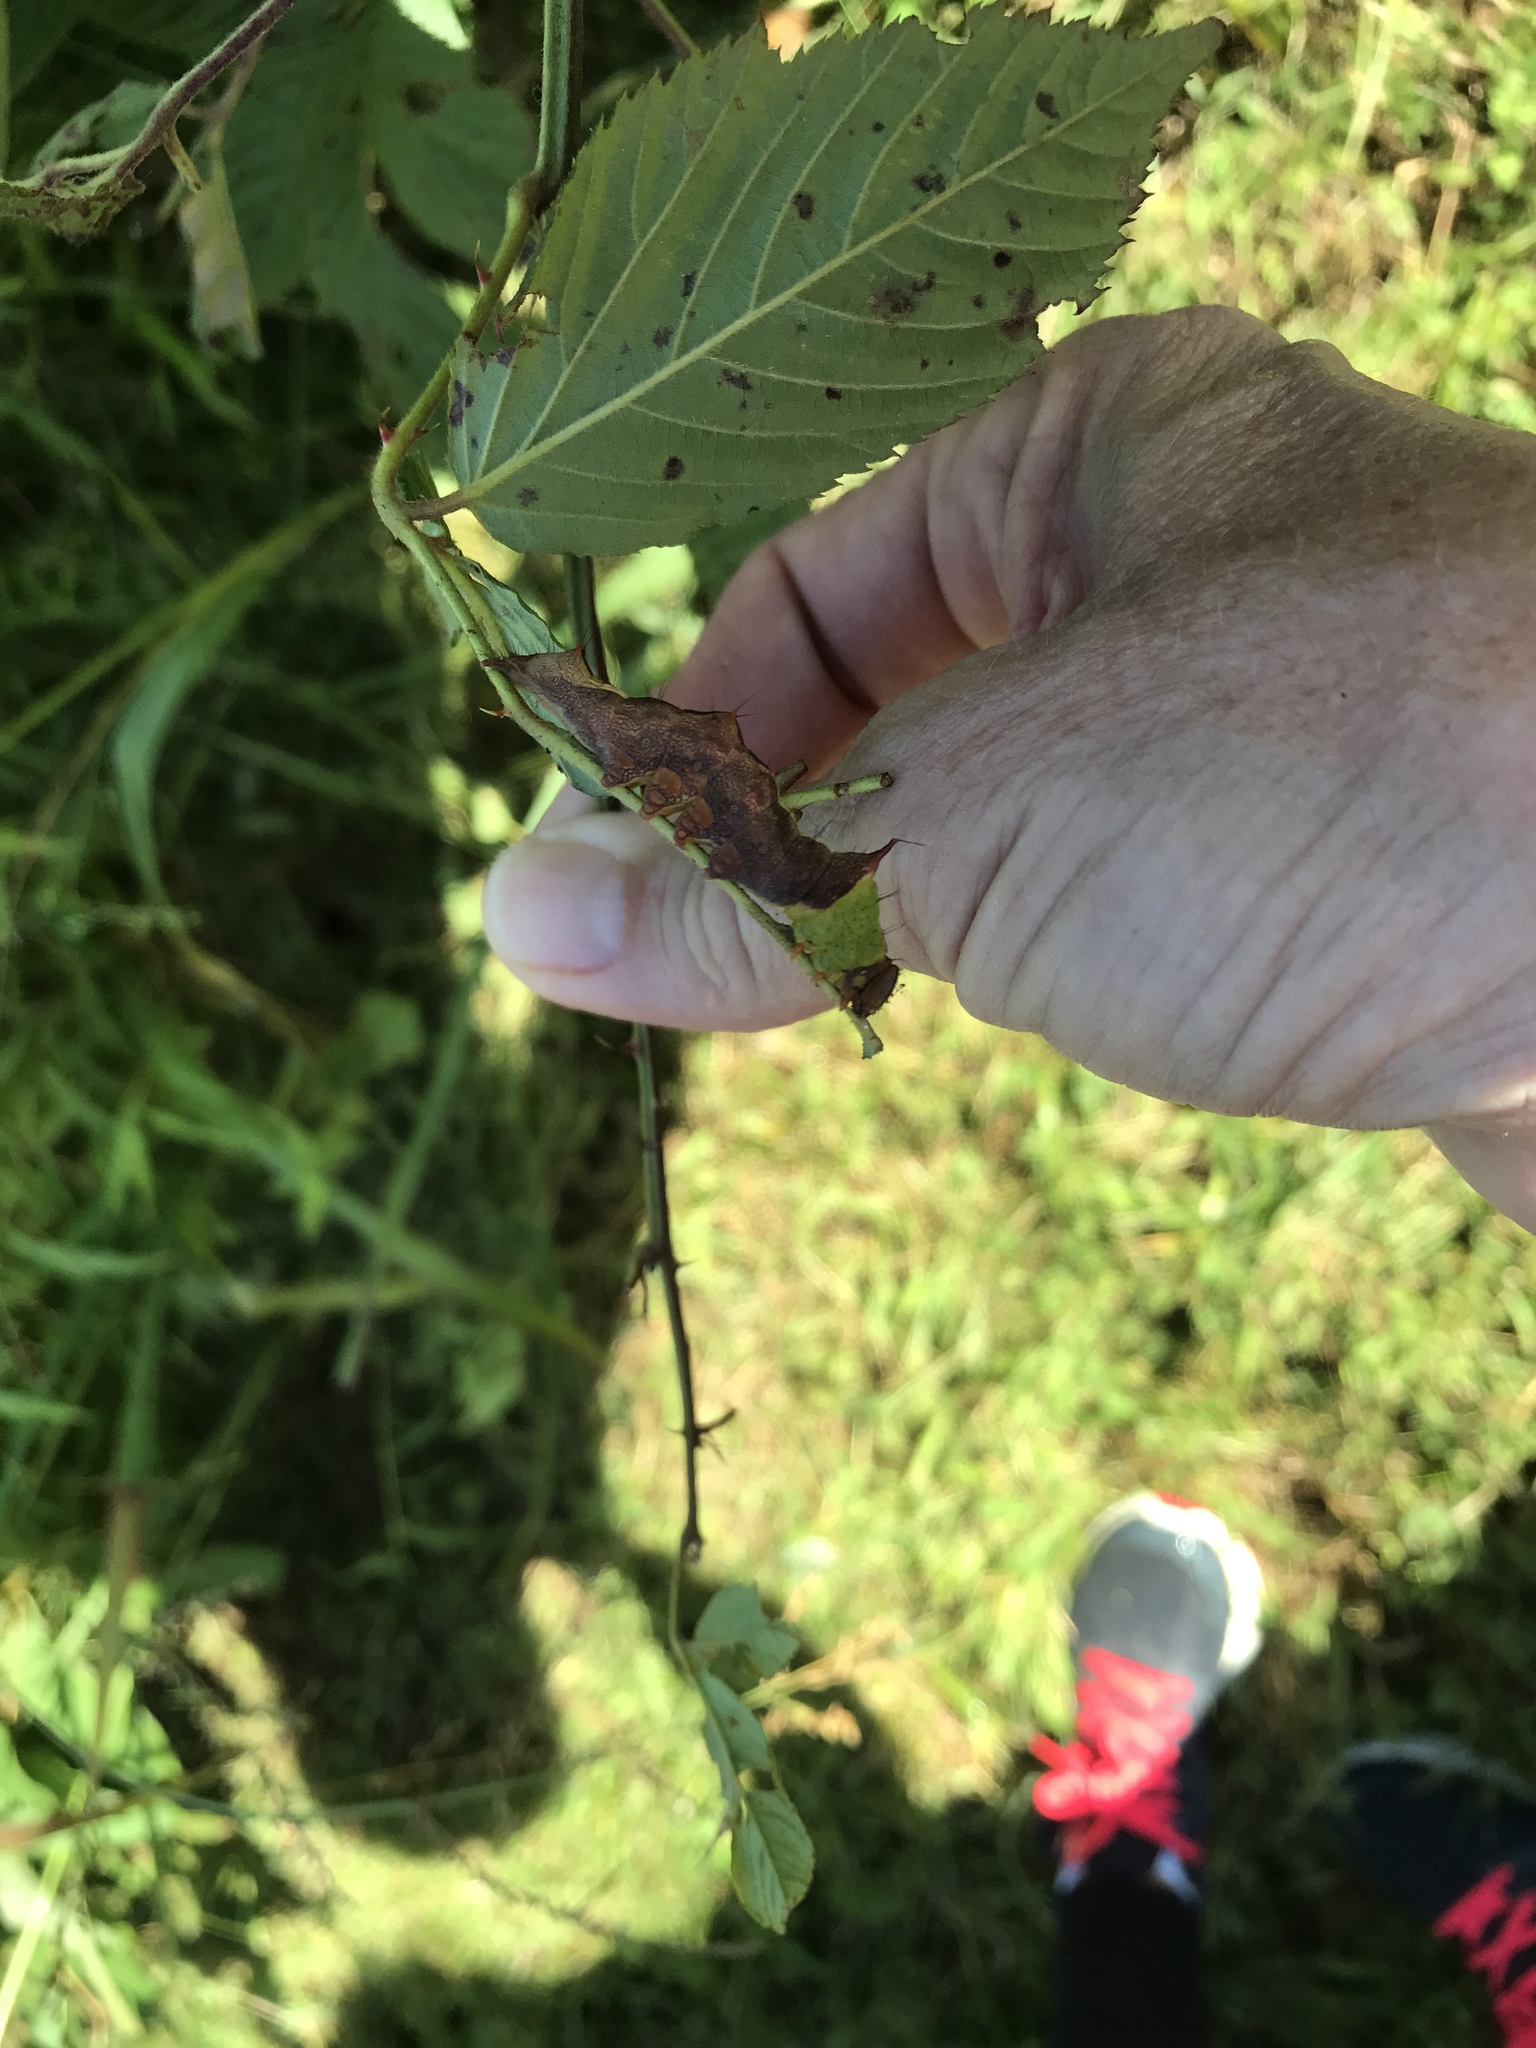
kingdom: Animalia
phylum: Arthropoda
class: Insecta
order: Lepidoptera
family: Notodontidae
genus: Schizura
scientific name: Schizura ipomaeae
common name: Morning-glory prominent
